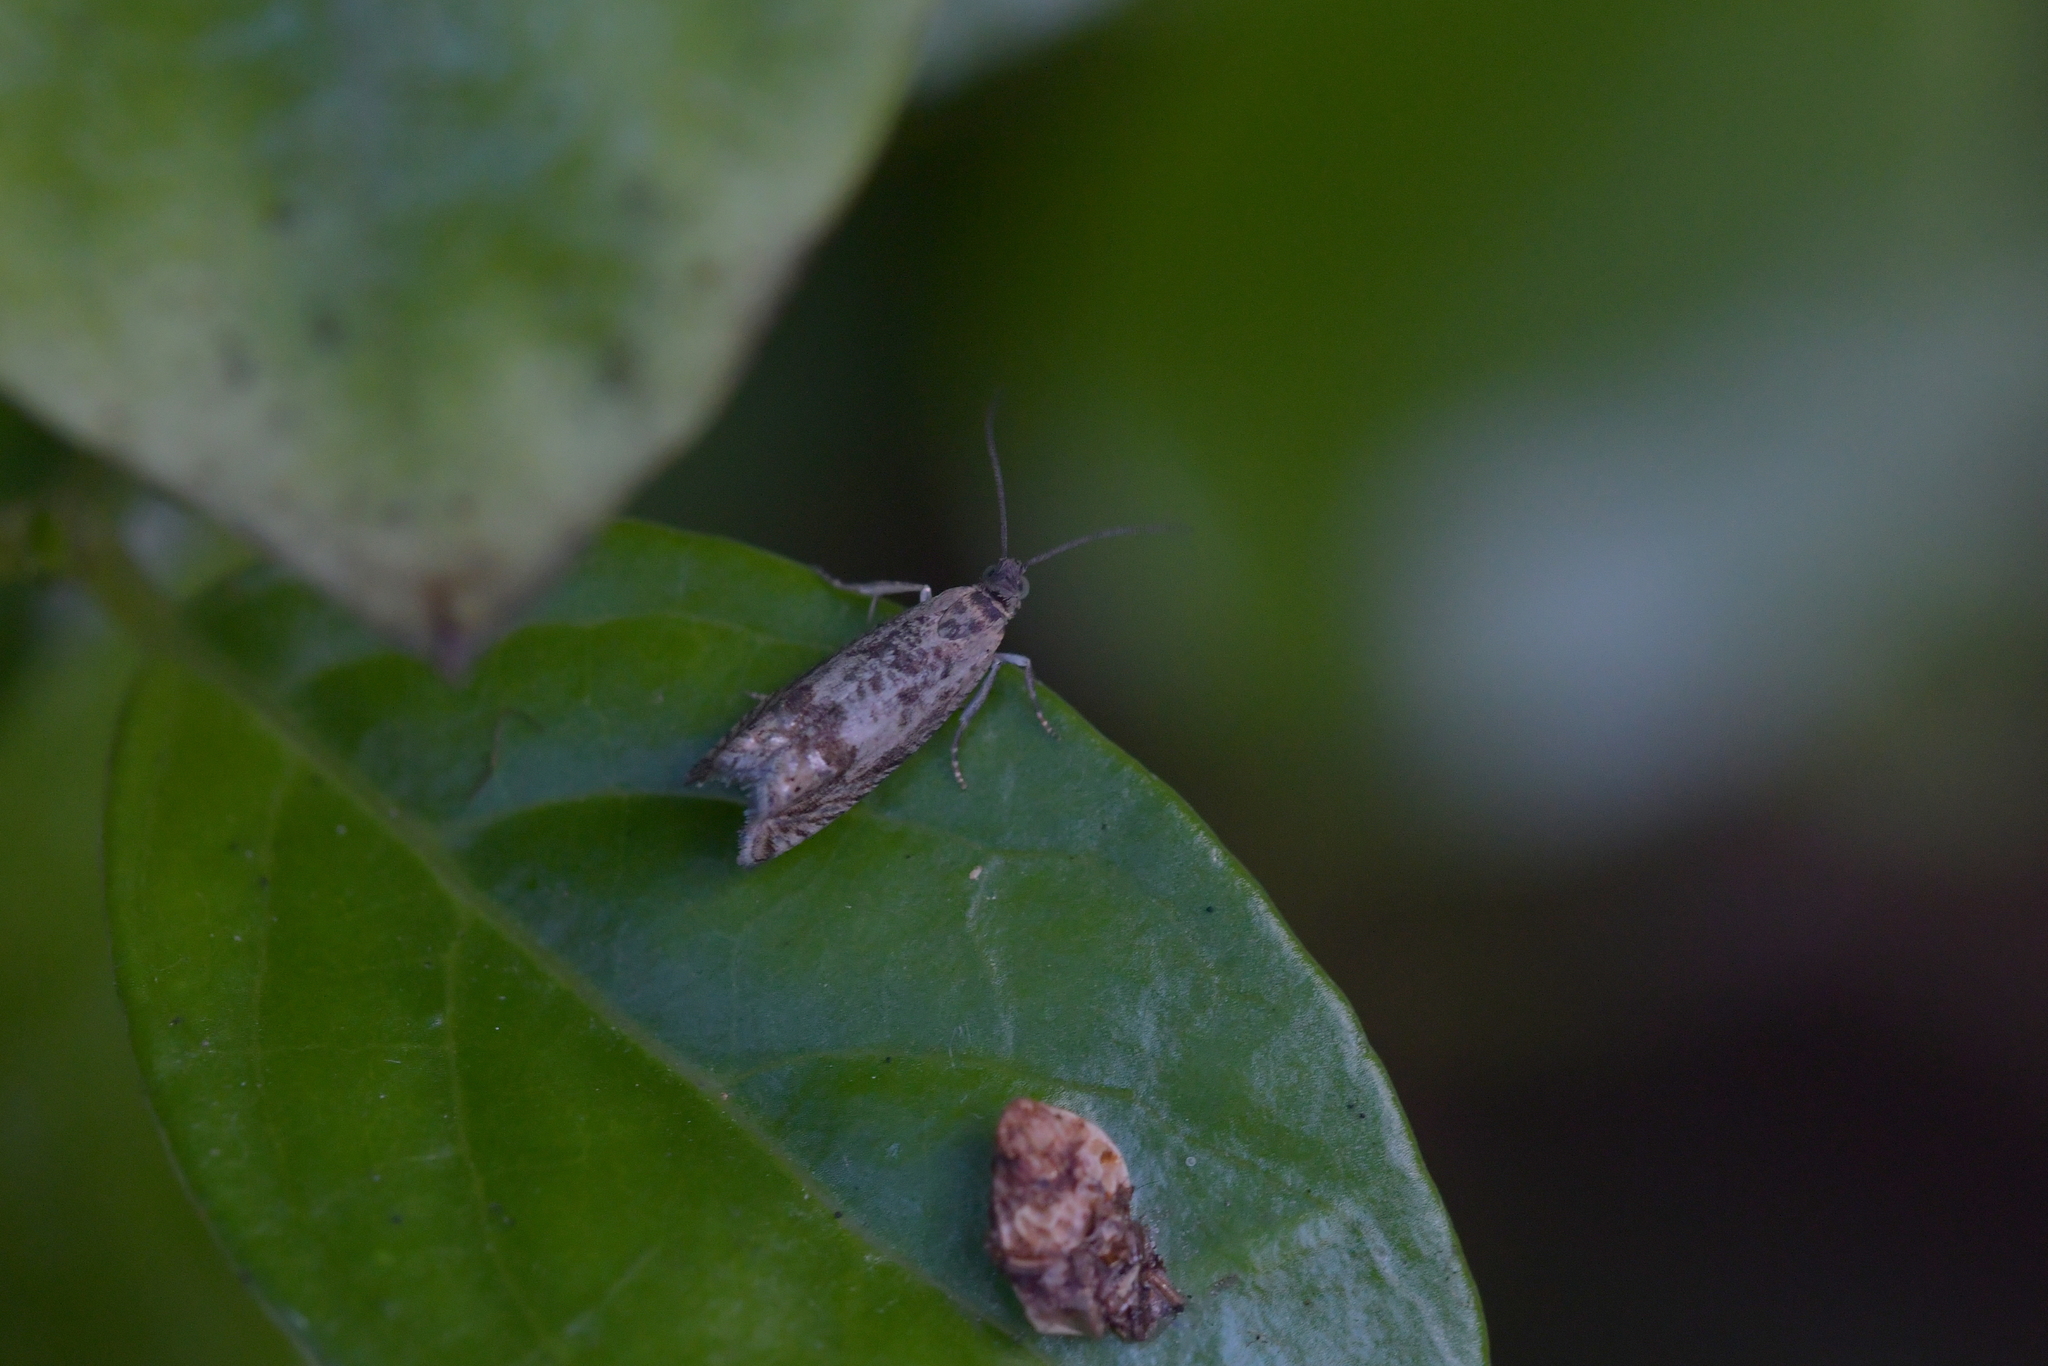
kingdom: Animalia
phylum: Arthropoda
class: Insecta
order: Lepidoptera
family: Tortricidae
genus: Cydia
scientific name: Cydia succedana
